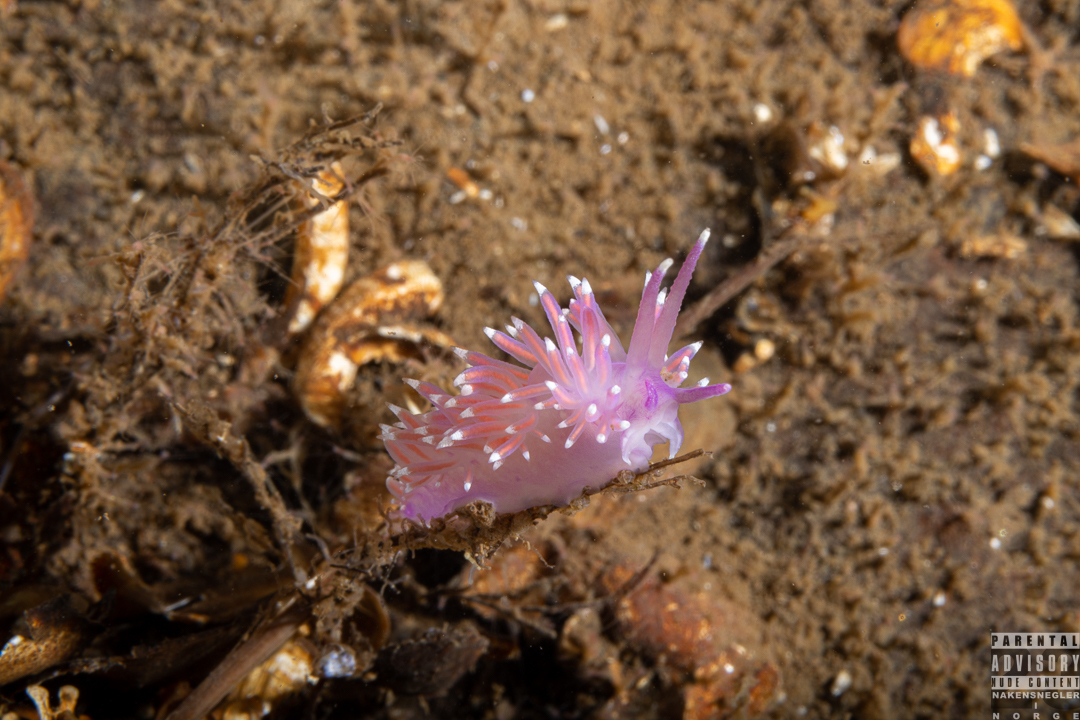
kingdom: Animalia
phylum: Mollusca
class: Gastropoda
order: Nudibranchia
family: Flabellinidae
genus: Edmundsella
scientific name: Edmundsella pedata
